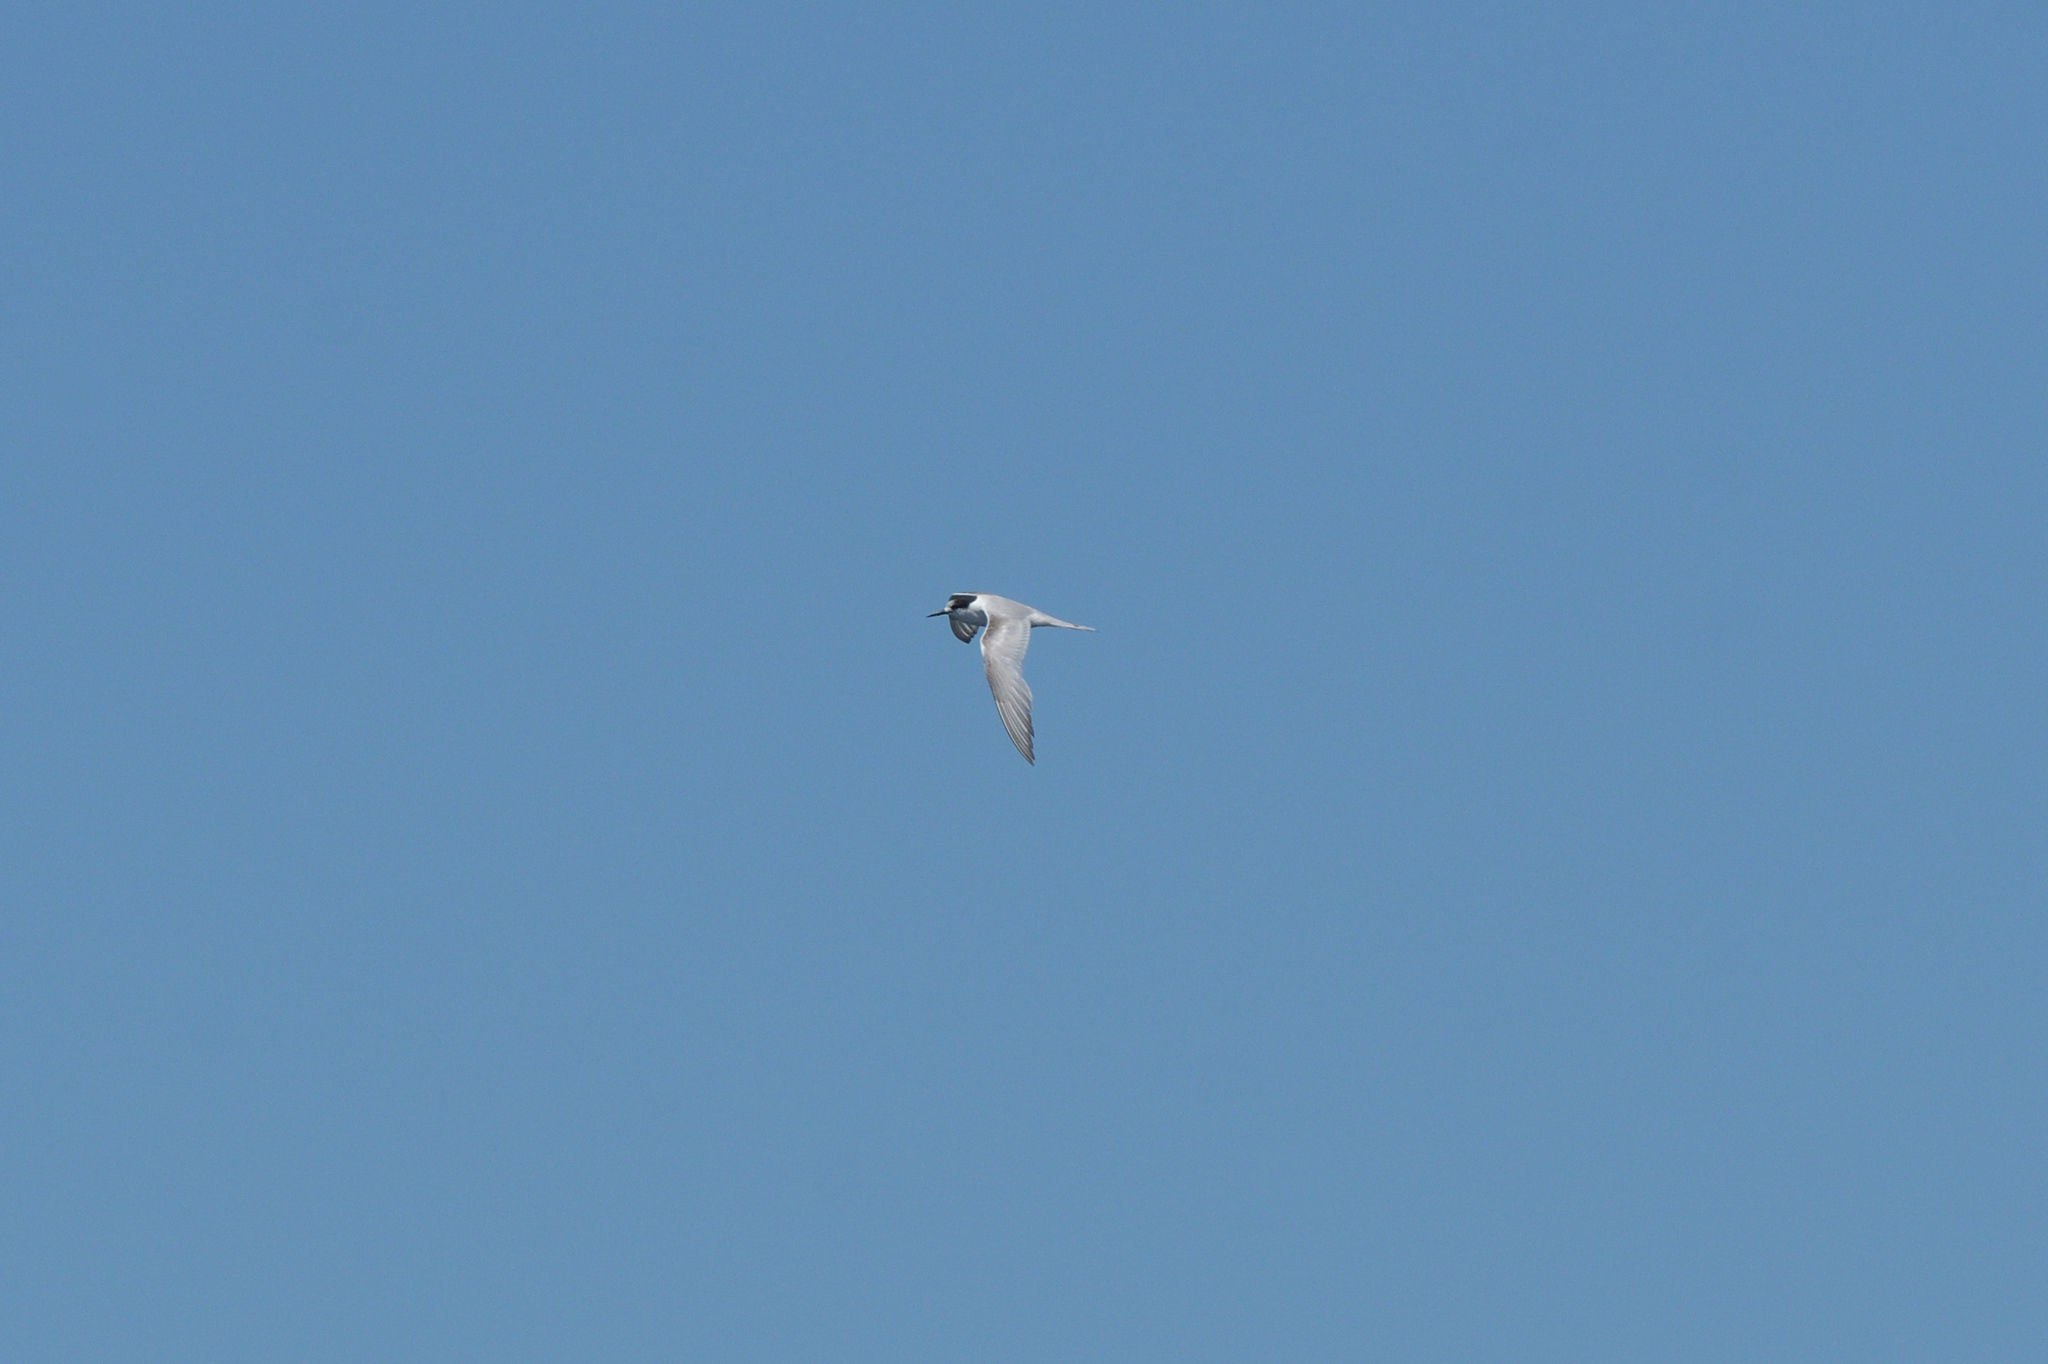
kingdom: Animalia
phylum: Chordata
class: Aves
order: Charadriiformes
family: Laridae
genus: Sterna
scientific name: Sterna striata
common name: White-fronted tern
